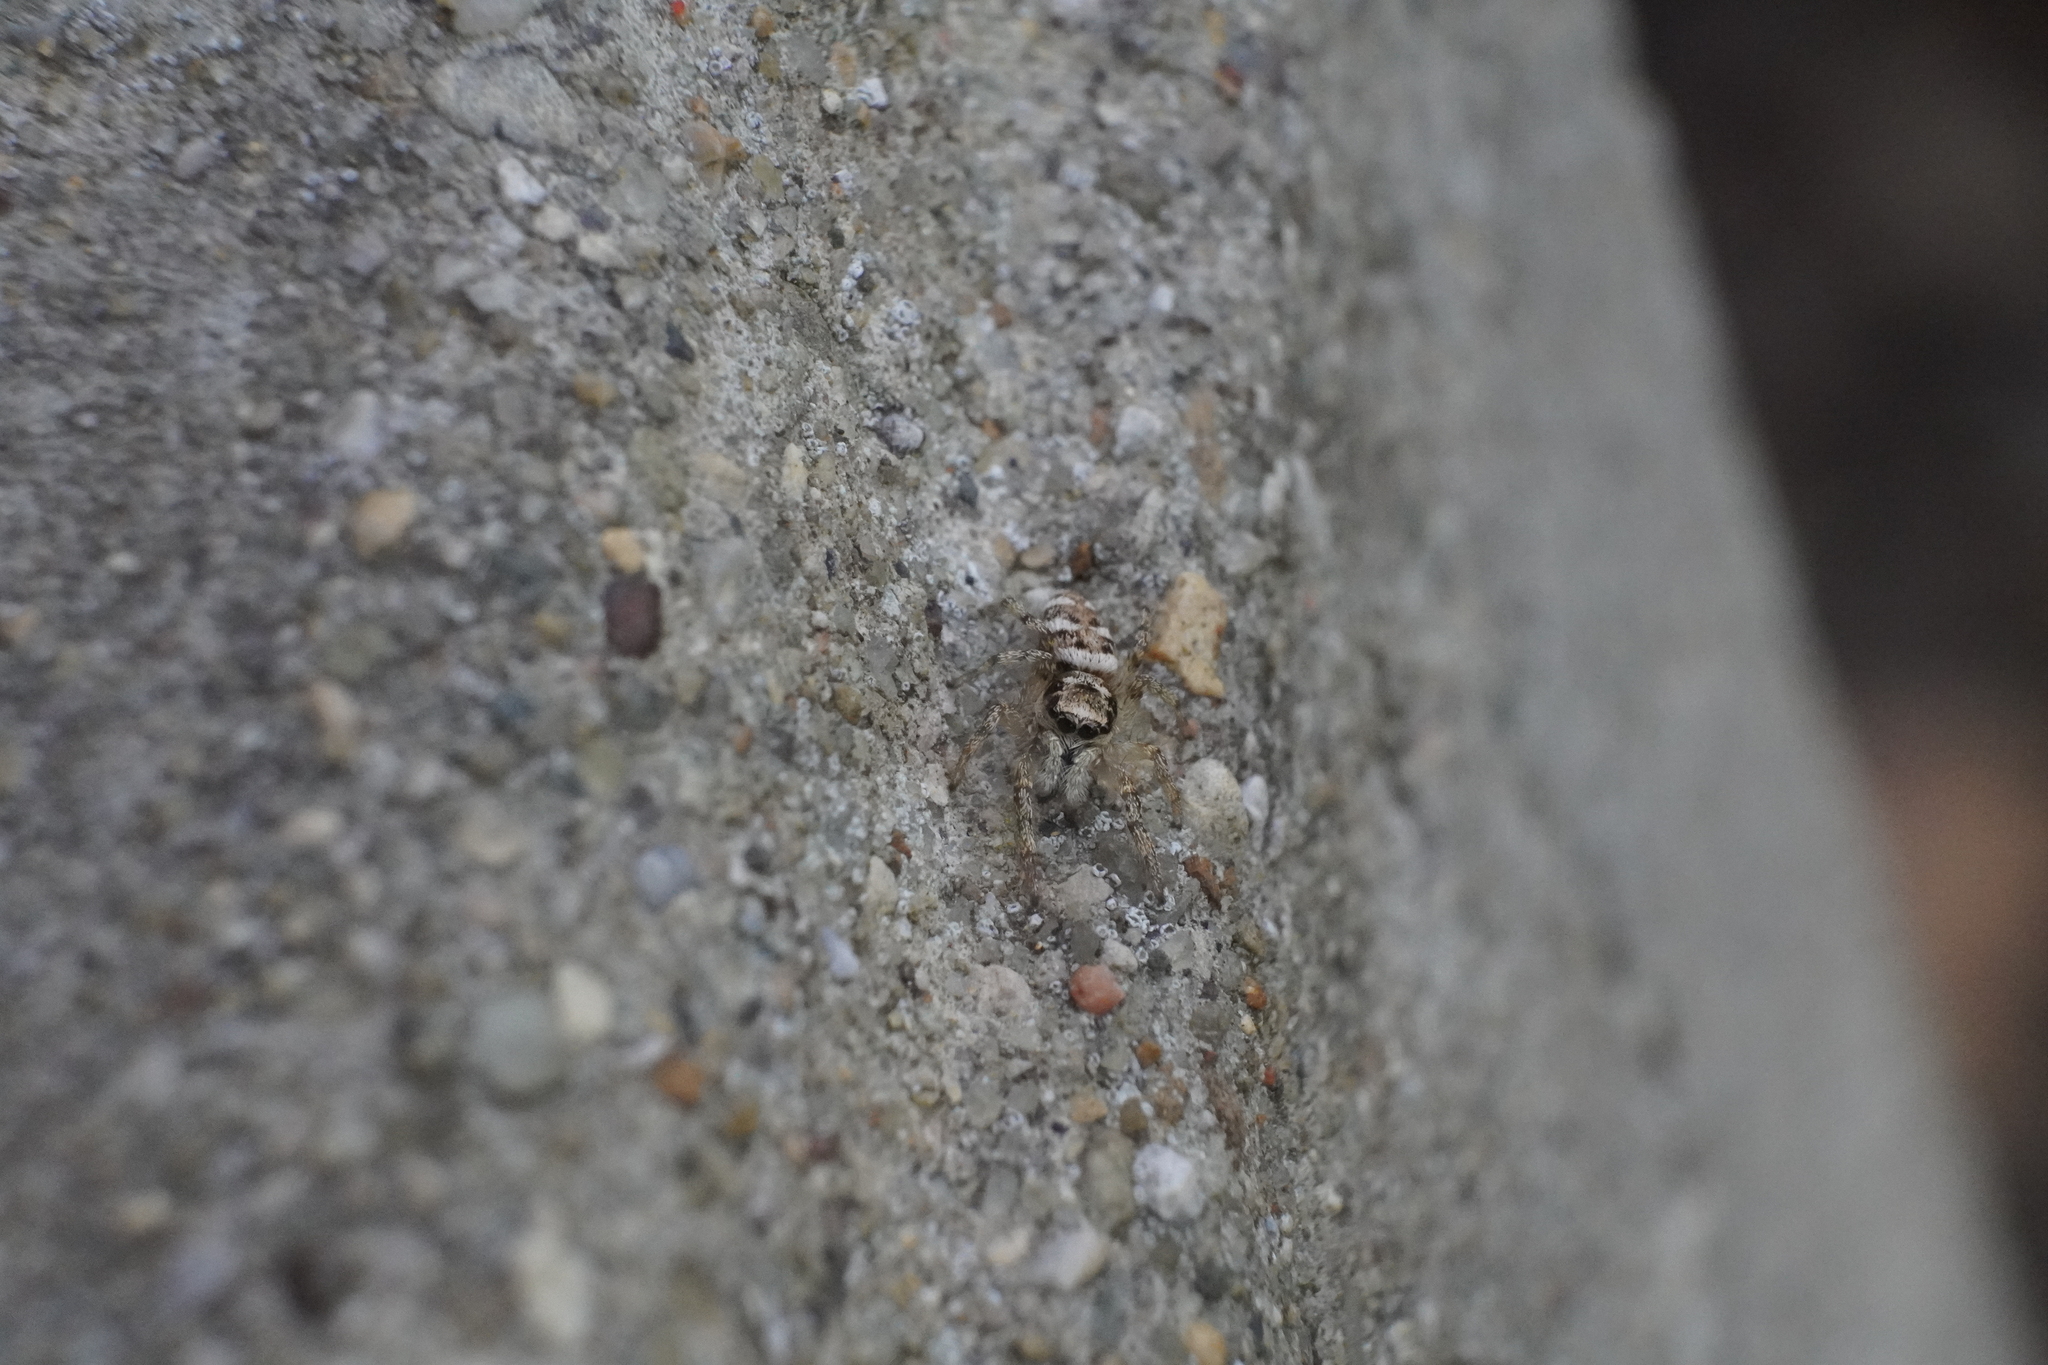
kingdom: Animalia
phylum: Arthropoda
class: Arachnida
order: Araneae
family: Salticidae
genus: Salticus
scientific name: Salticus scenicus
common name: Zebra jumper
